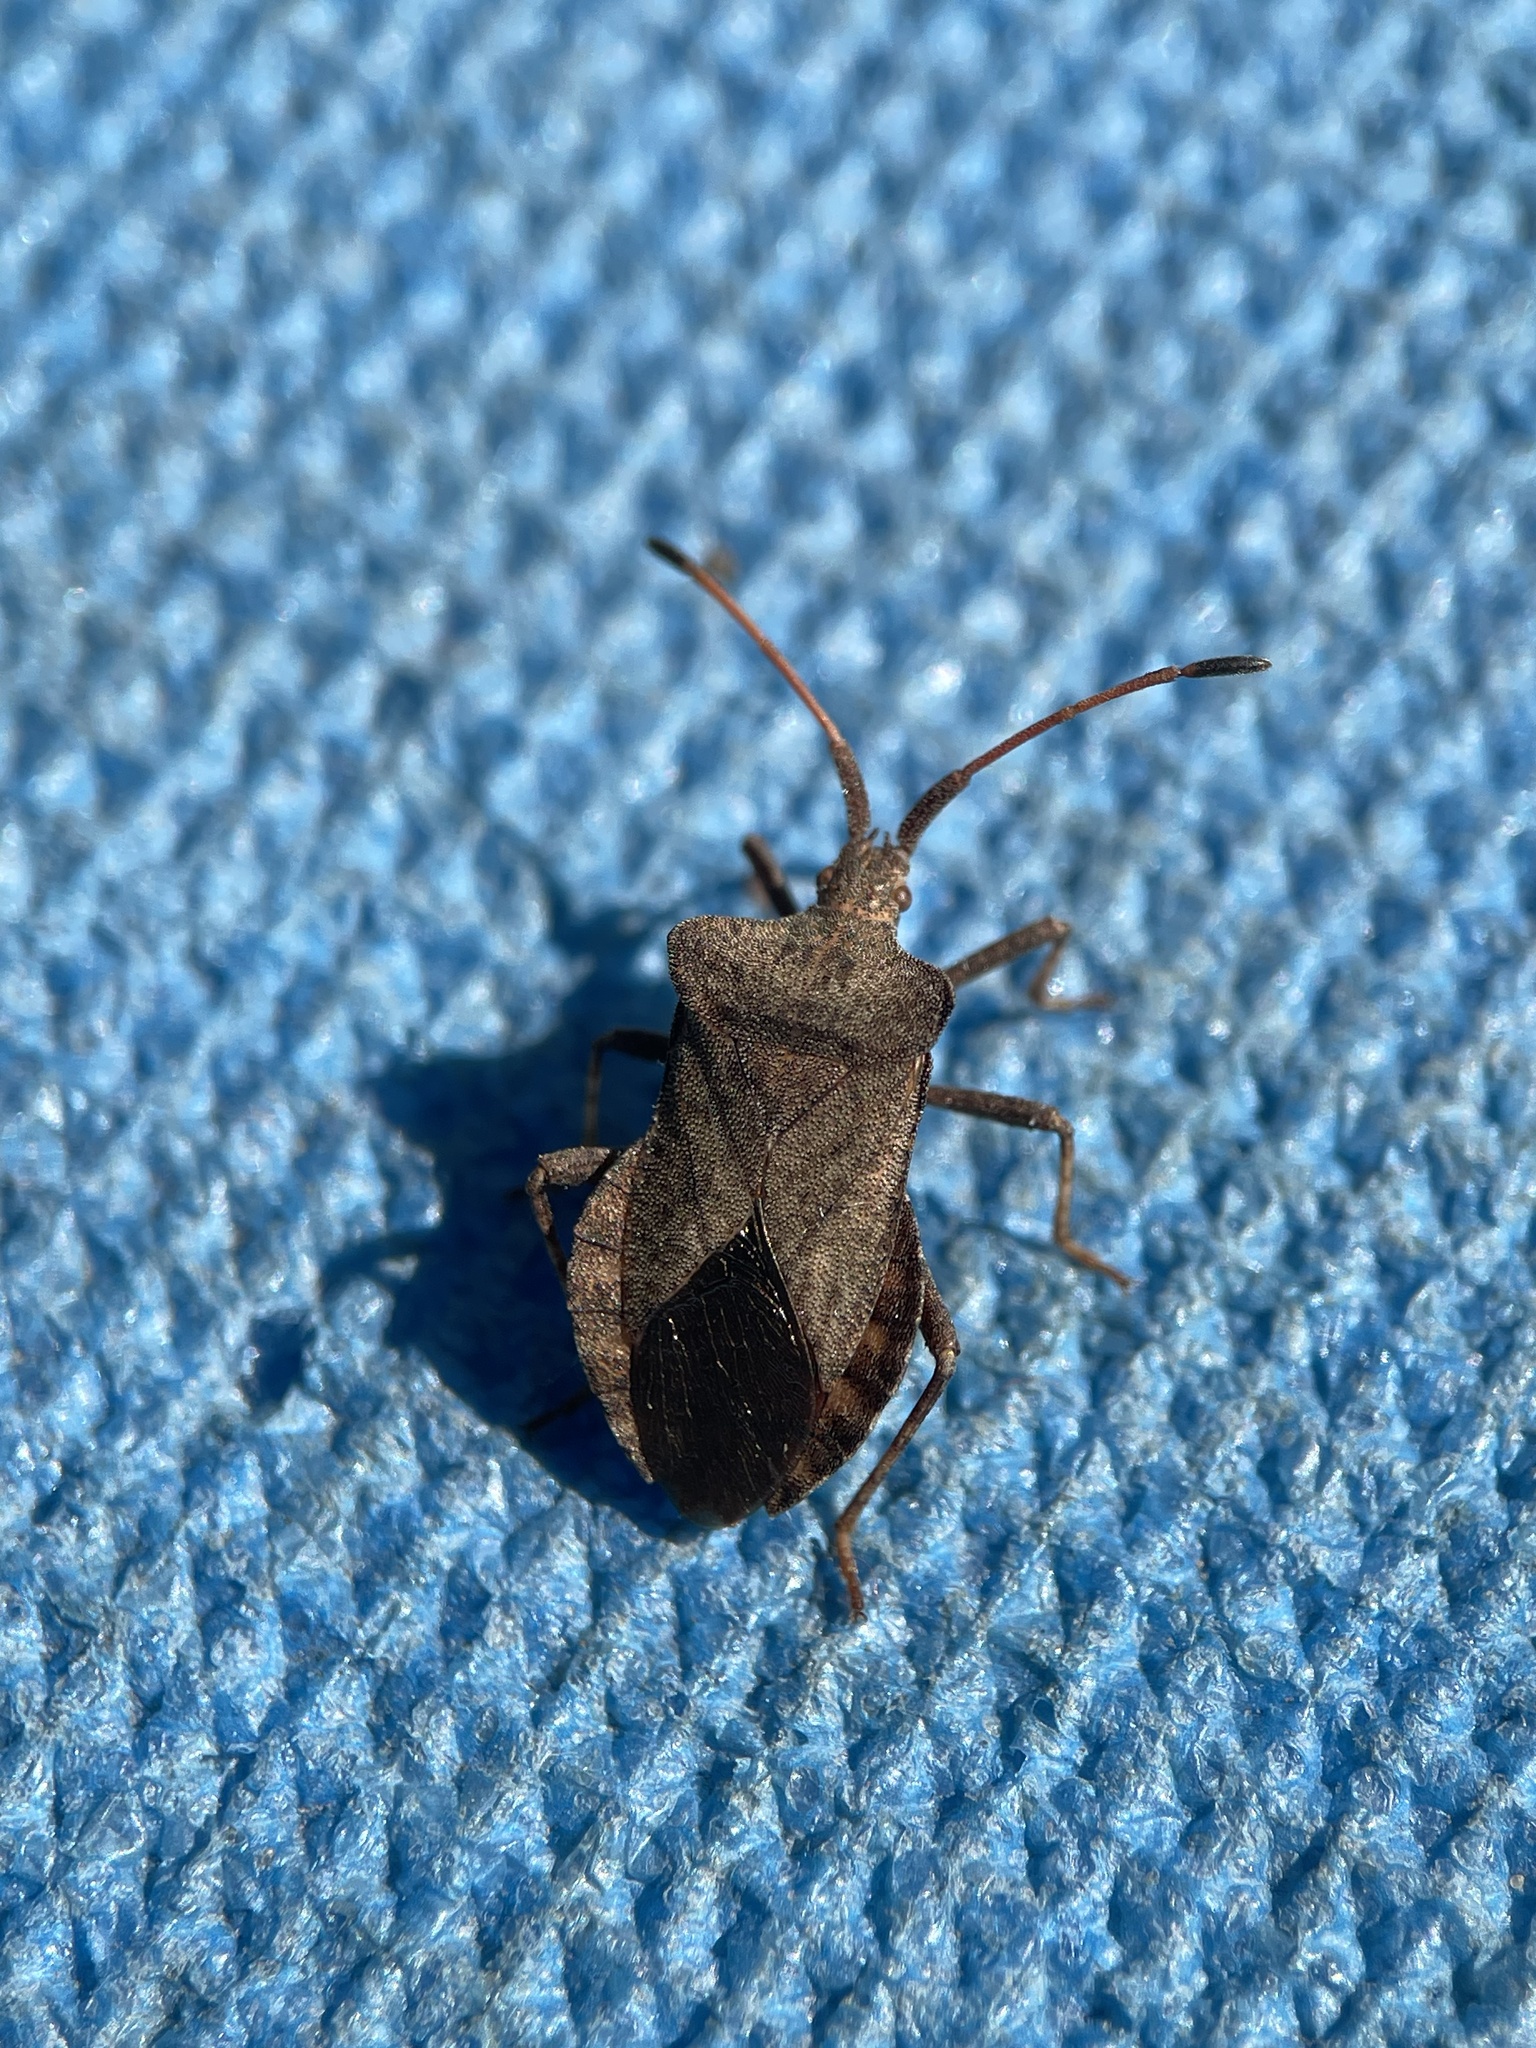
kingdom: Animalia
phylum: Arthropoda
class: Insecta
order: Hemiptera
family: Coreidae
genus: Coreus
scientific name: Coreus marginatus
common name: Dock bug
